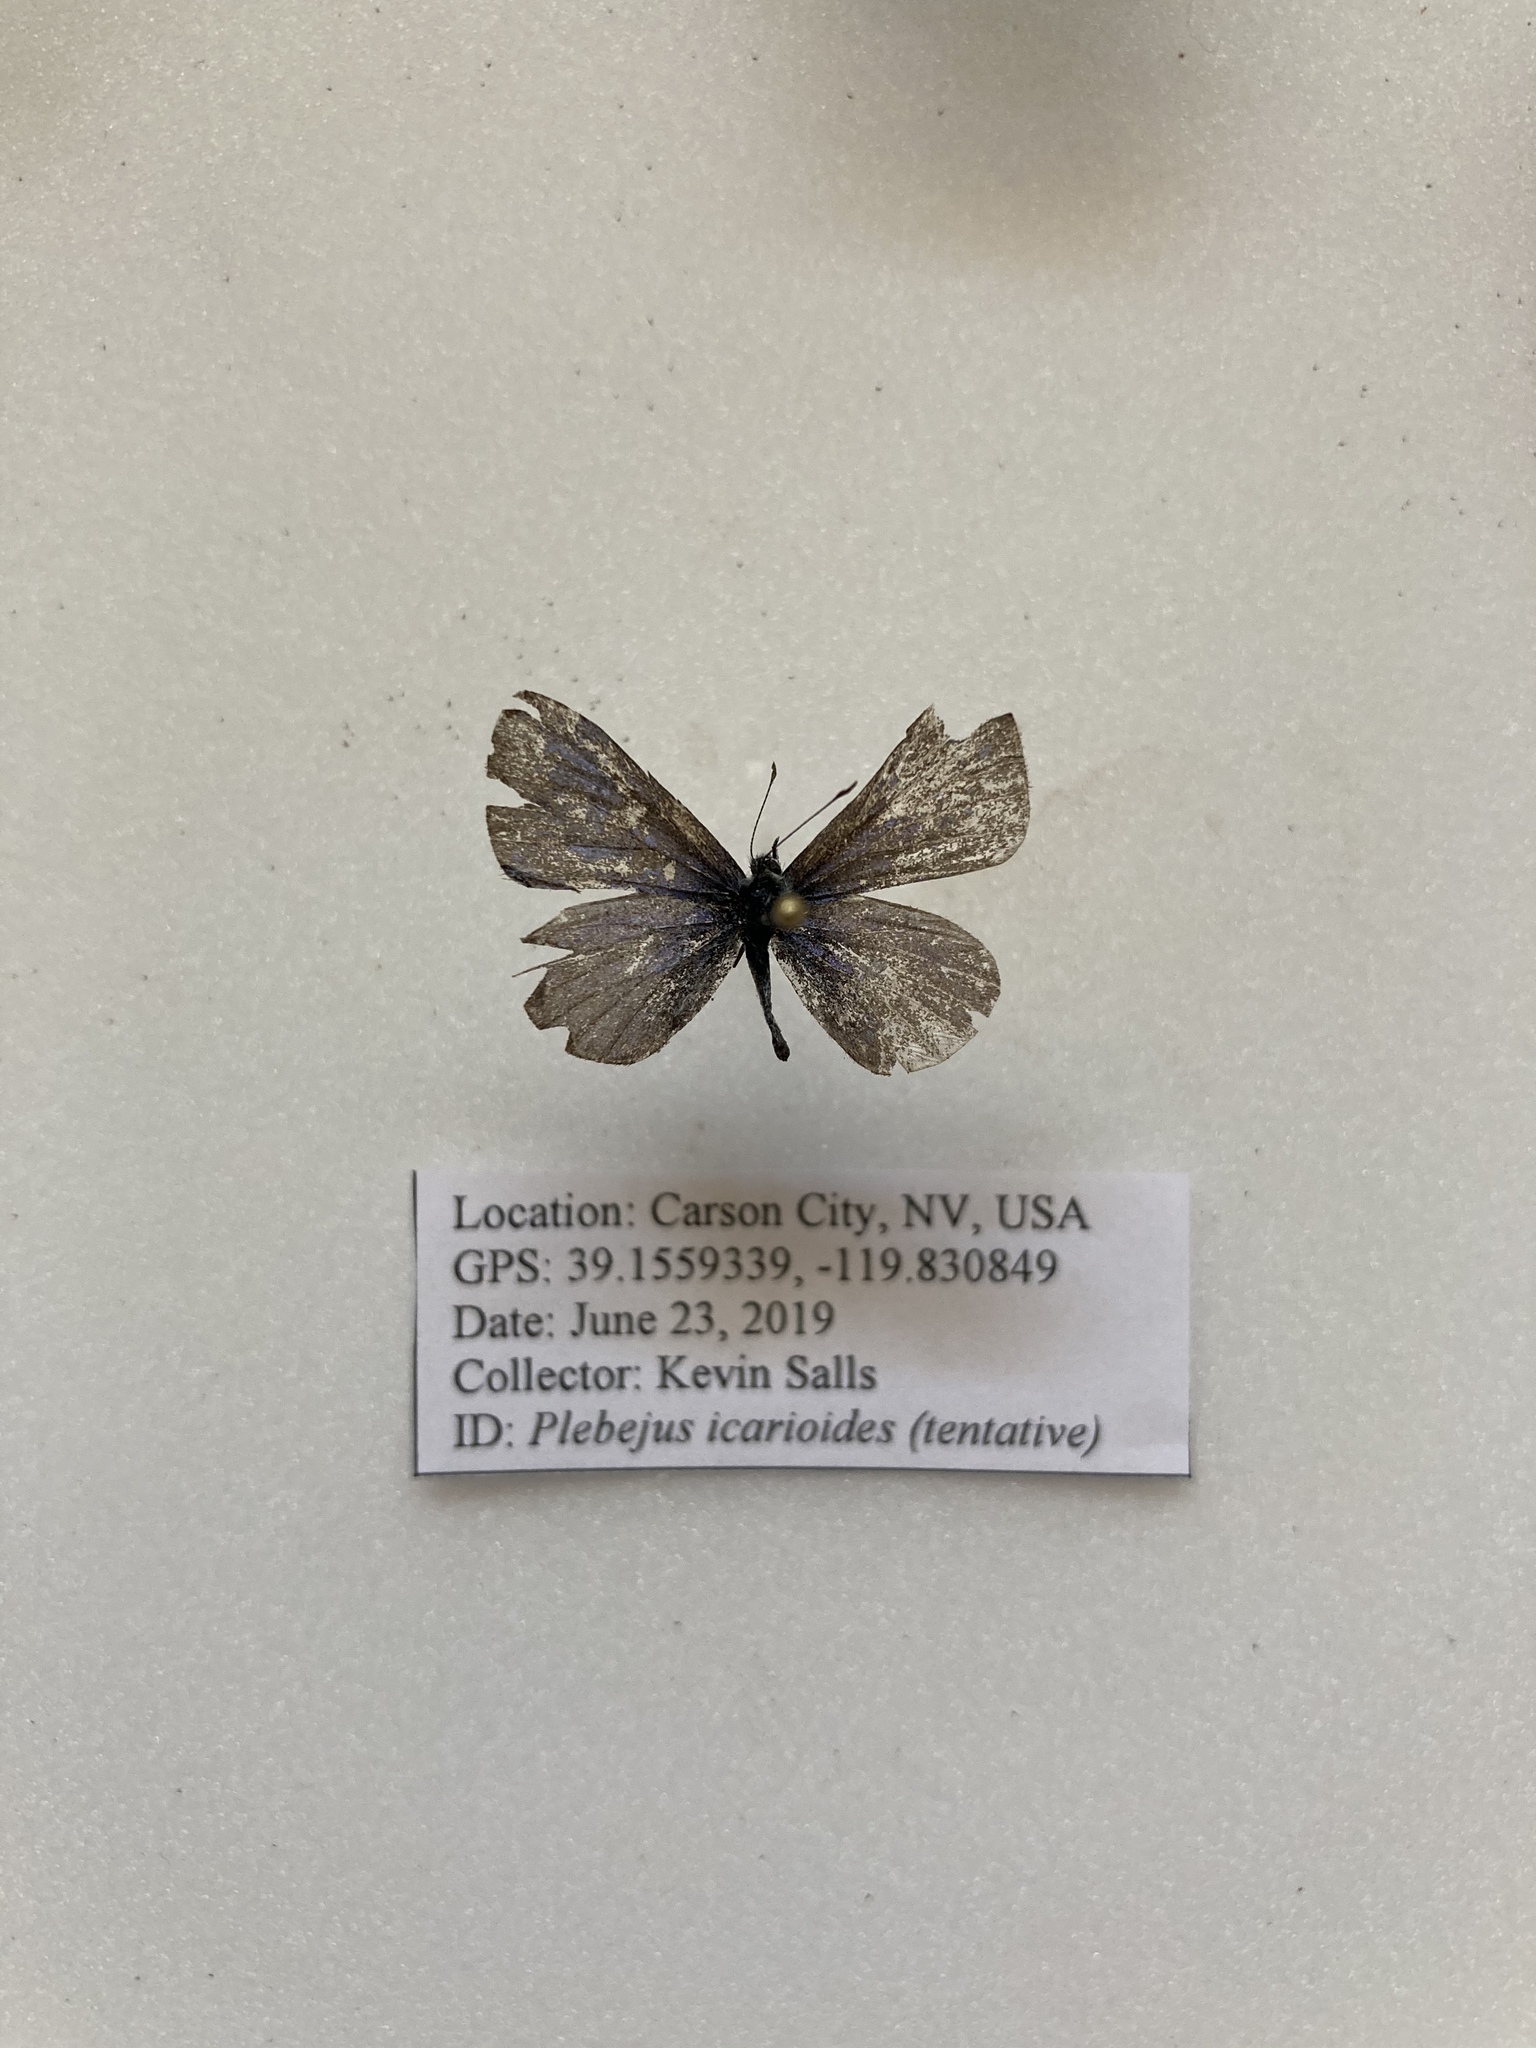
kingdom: Animalia
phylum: Arthropoda
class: Insecta
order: Lepidoptera
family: Lycaenidae
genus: Celastrina
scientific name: Celastrina ladon
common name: Spring azure
